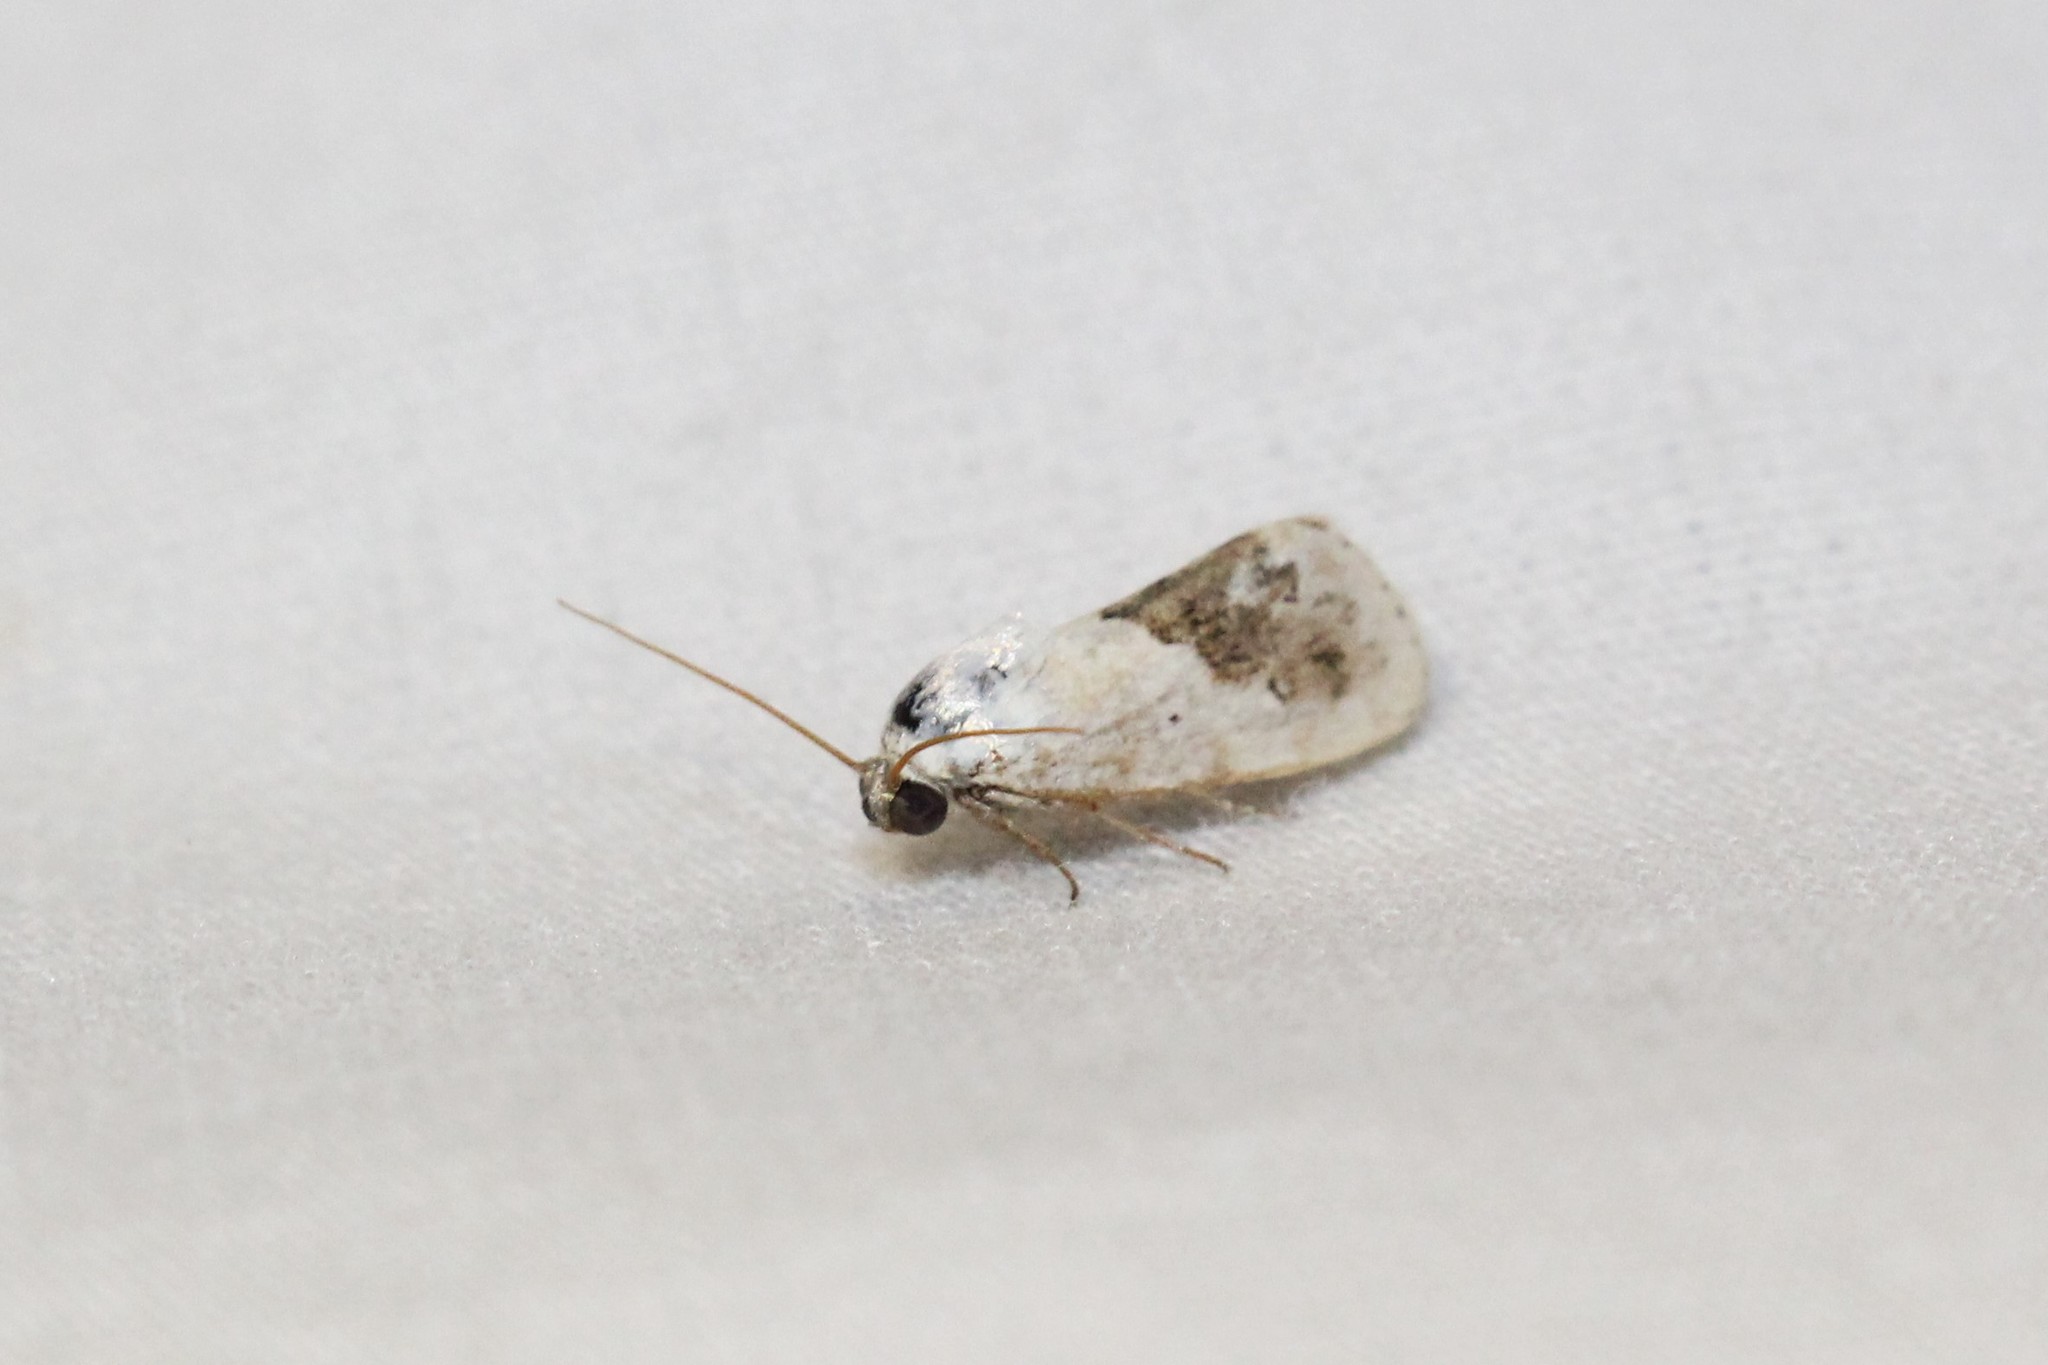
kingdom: Animalia
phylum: Arthropoda
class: Insecta
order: Lepidoptera
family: Noctuidae
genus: Acontia
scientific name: Acontia erastrioides
